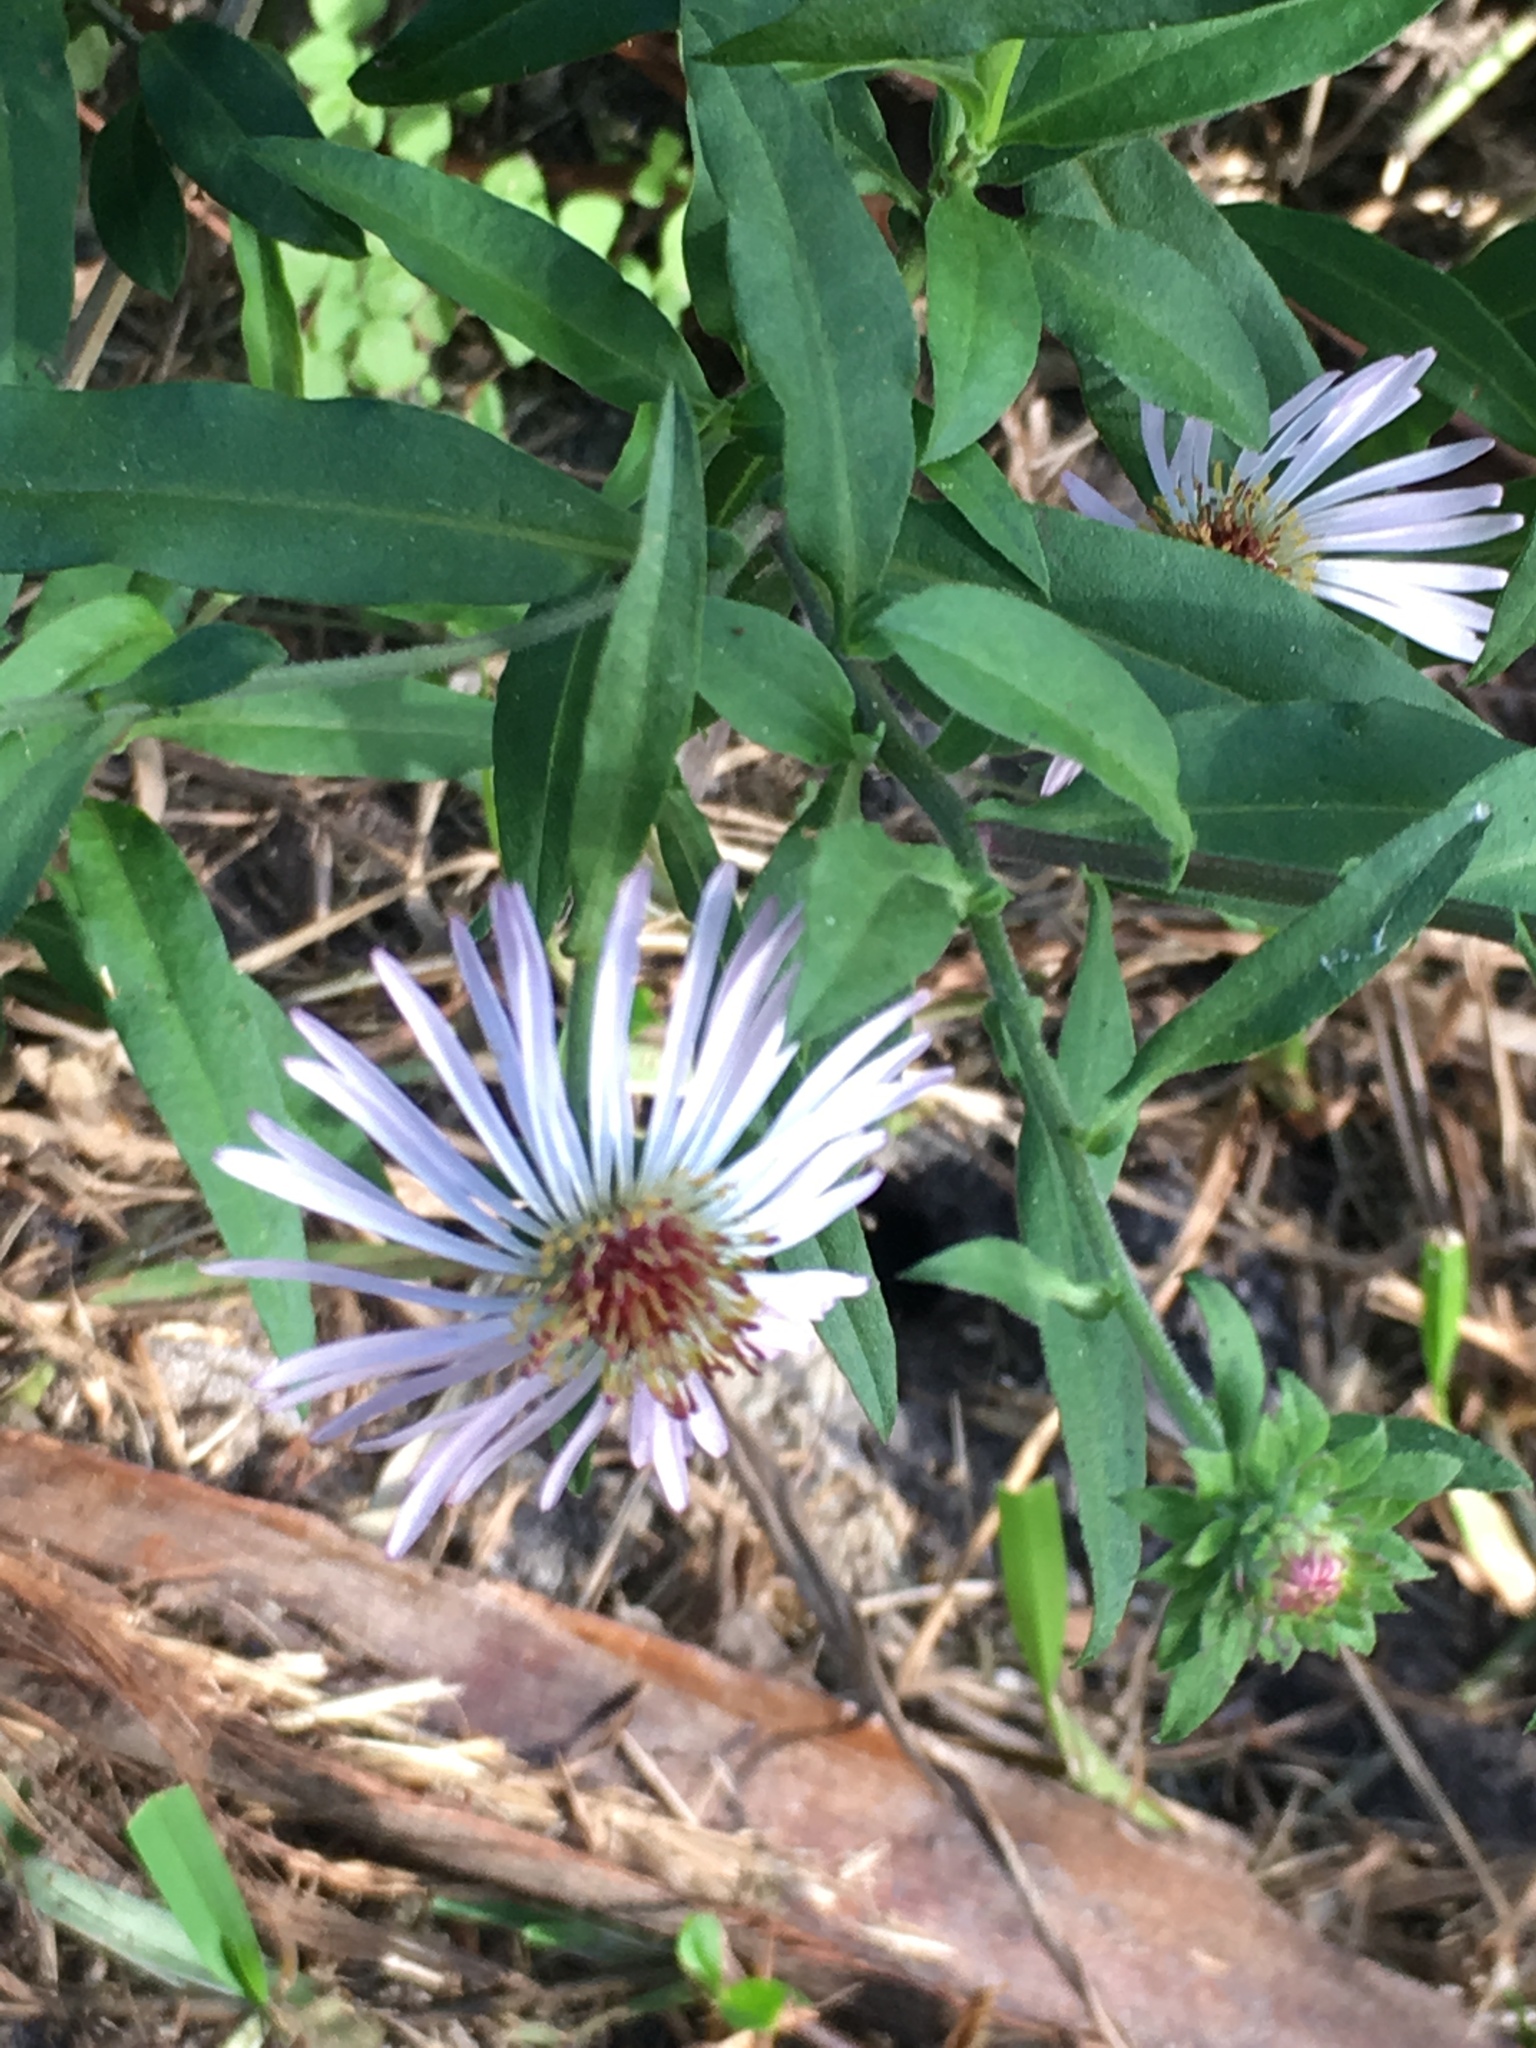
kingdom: Plantae
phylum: Tracheophyta
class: Magnoliopsida
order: Asterales
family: Asteraceae
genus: Ampelaster
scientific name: Ampelaster carolinianus
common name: Climbing aster
